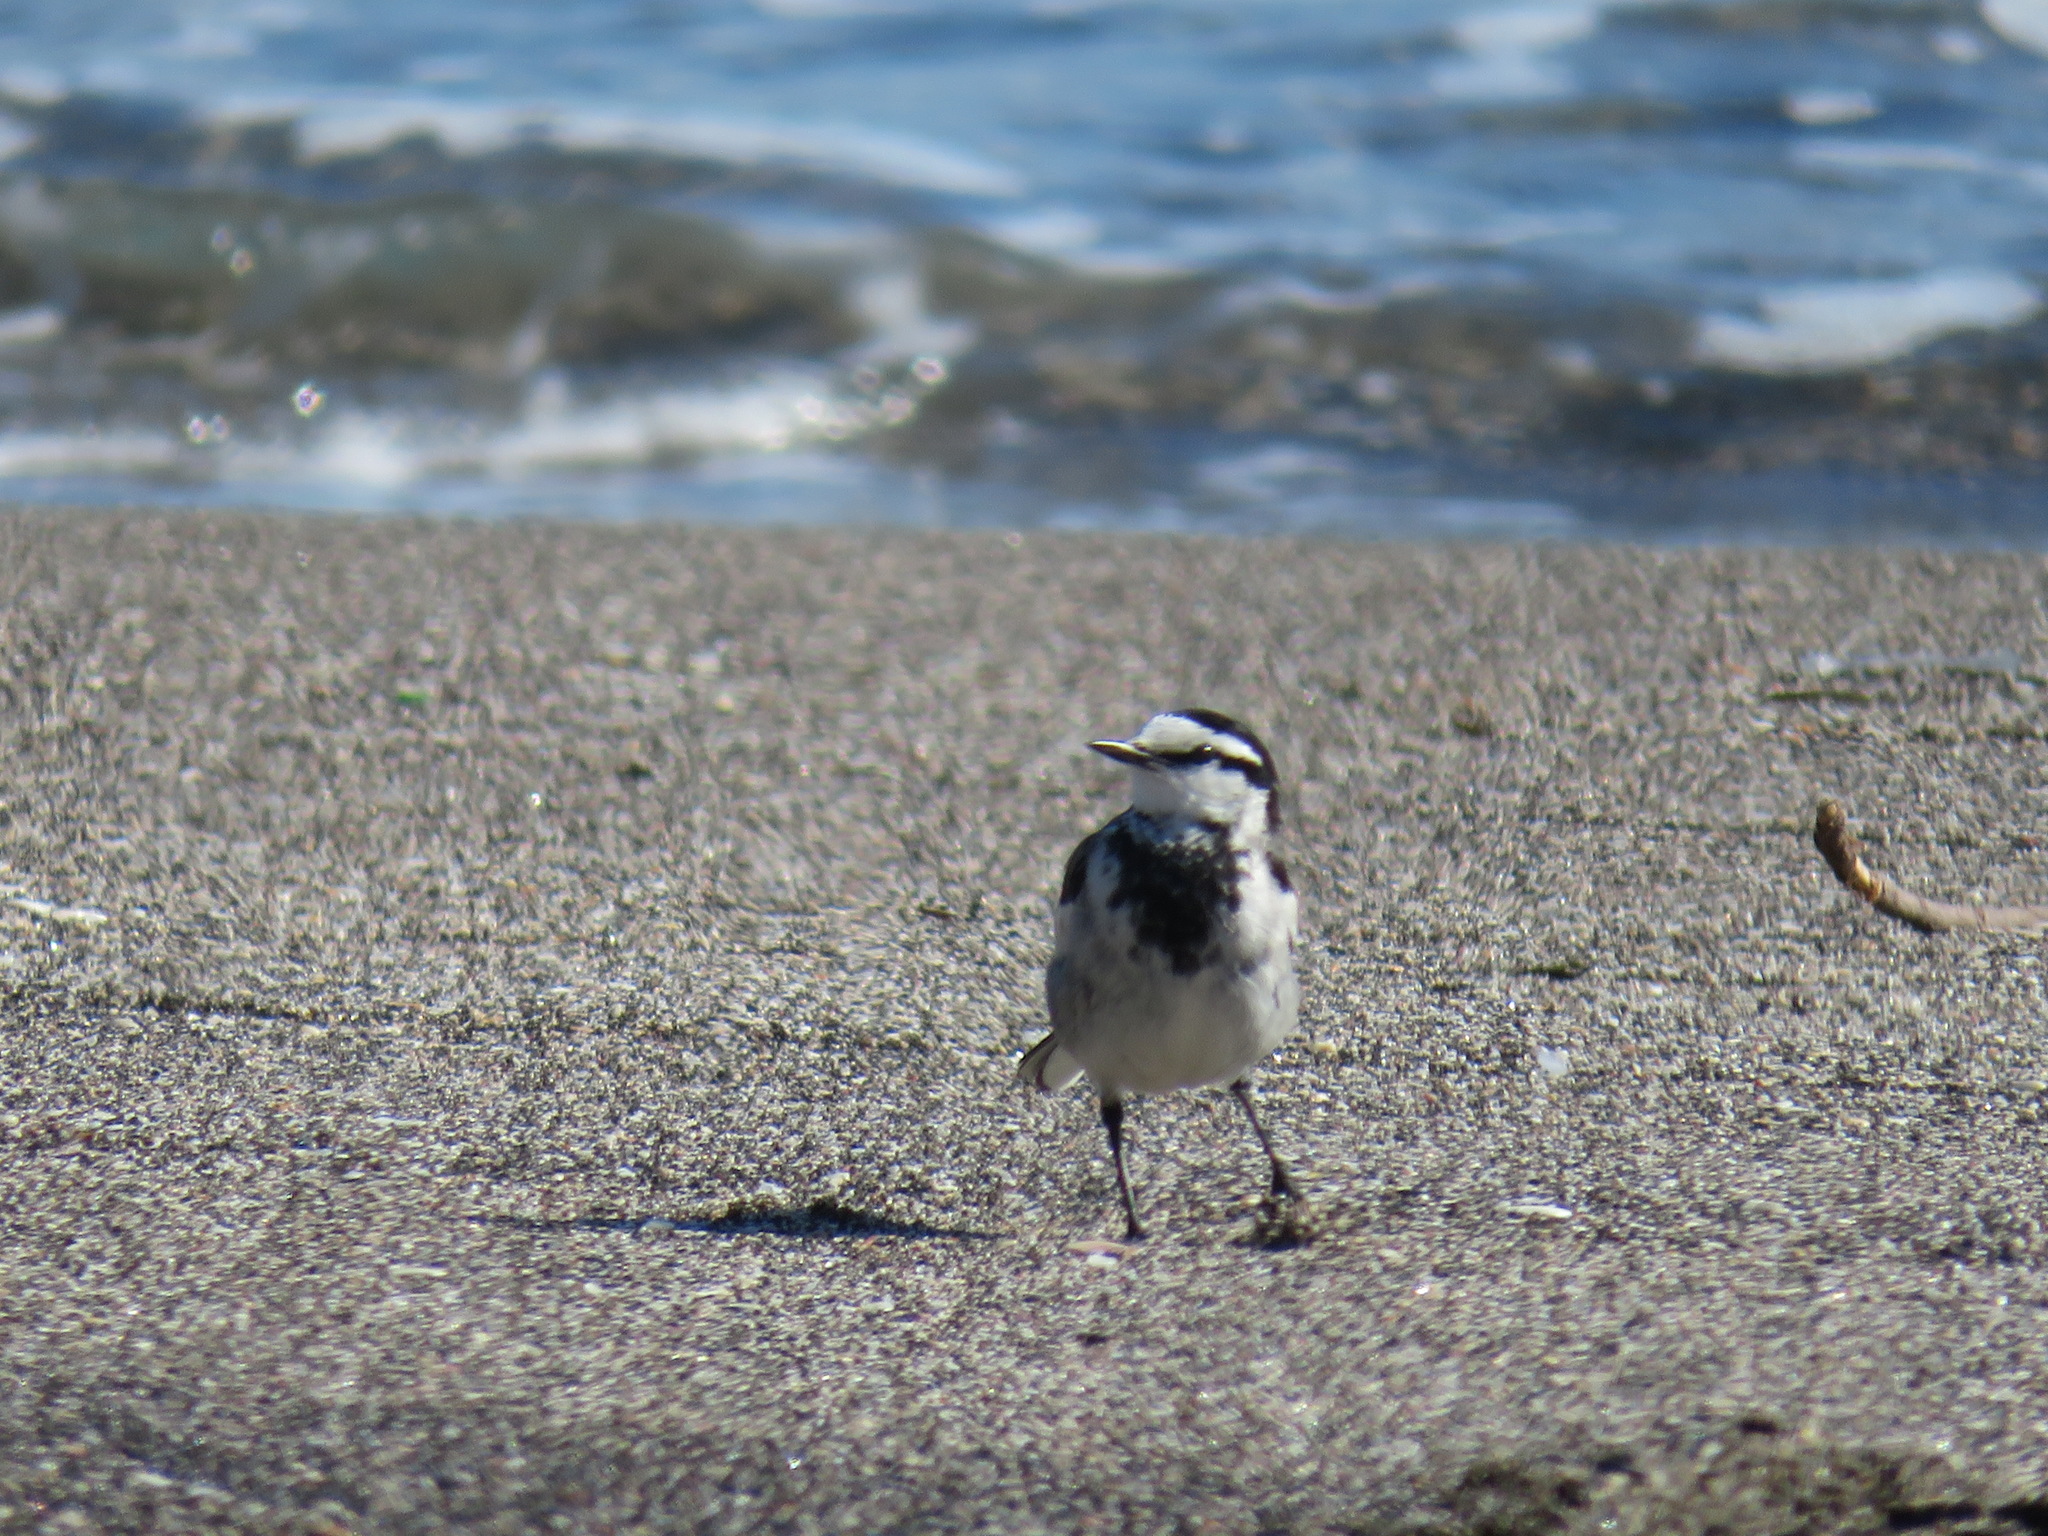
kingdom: Animalia
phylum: Chordata
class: Aves
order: Passeriformes
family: Motacillidae
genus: Motacilla
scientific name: Motacilla alba
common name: White wagtail
